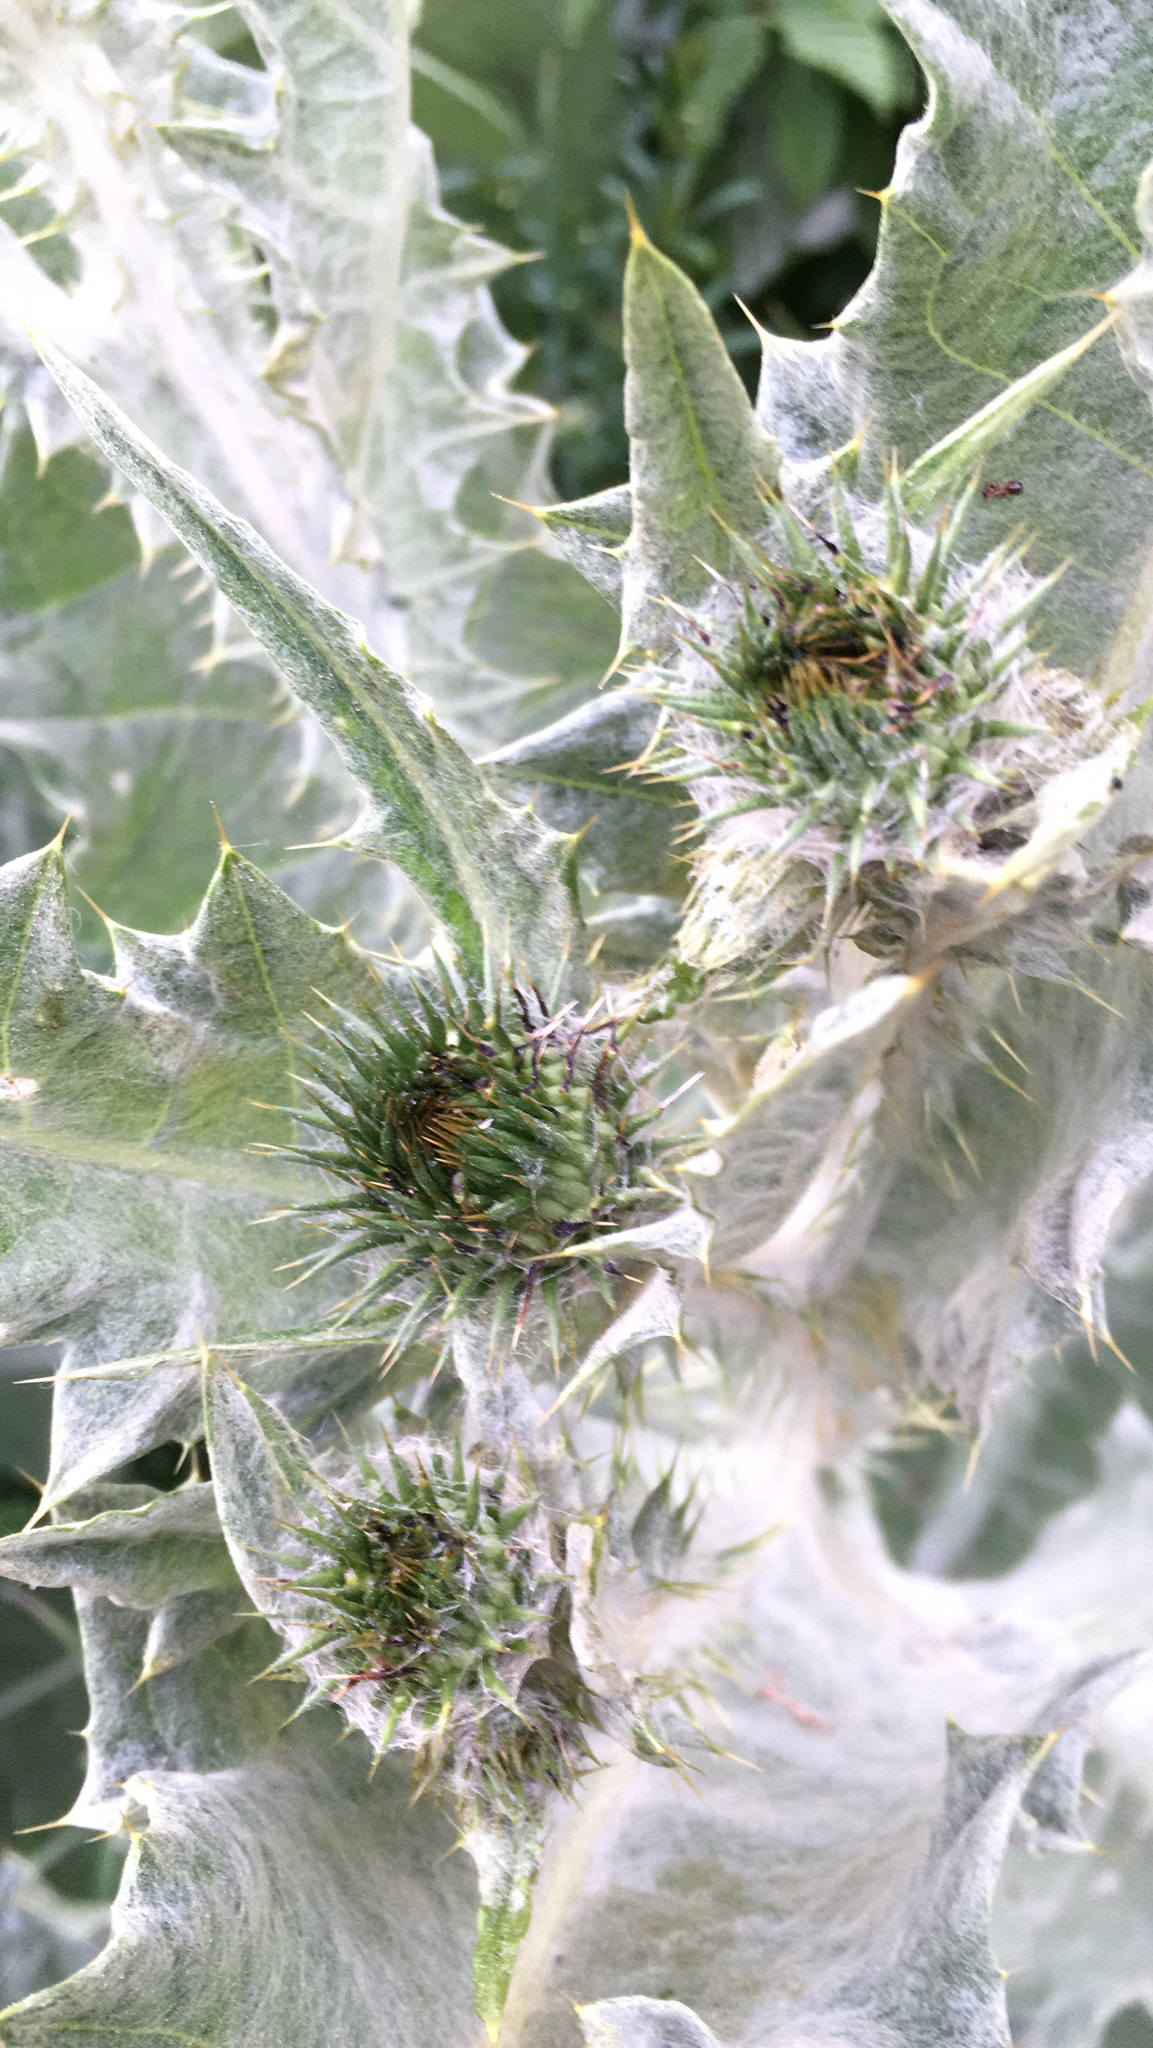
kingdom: Plantae
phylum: Tracheophyta
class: Magnoliopsida
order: Asterales
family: Asteraceae
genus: Onopordum
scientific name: Onopordum acanthium
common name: Scotch thistle
